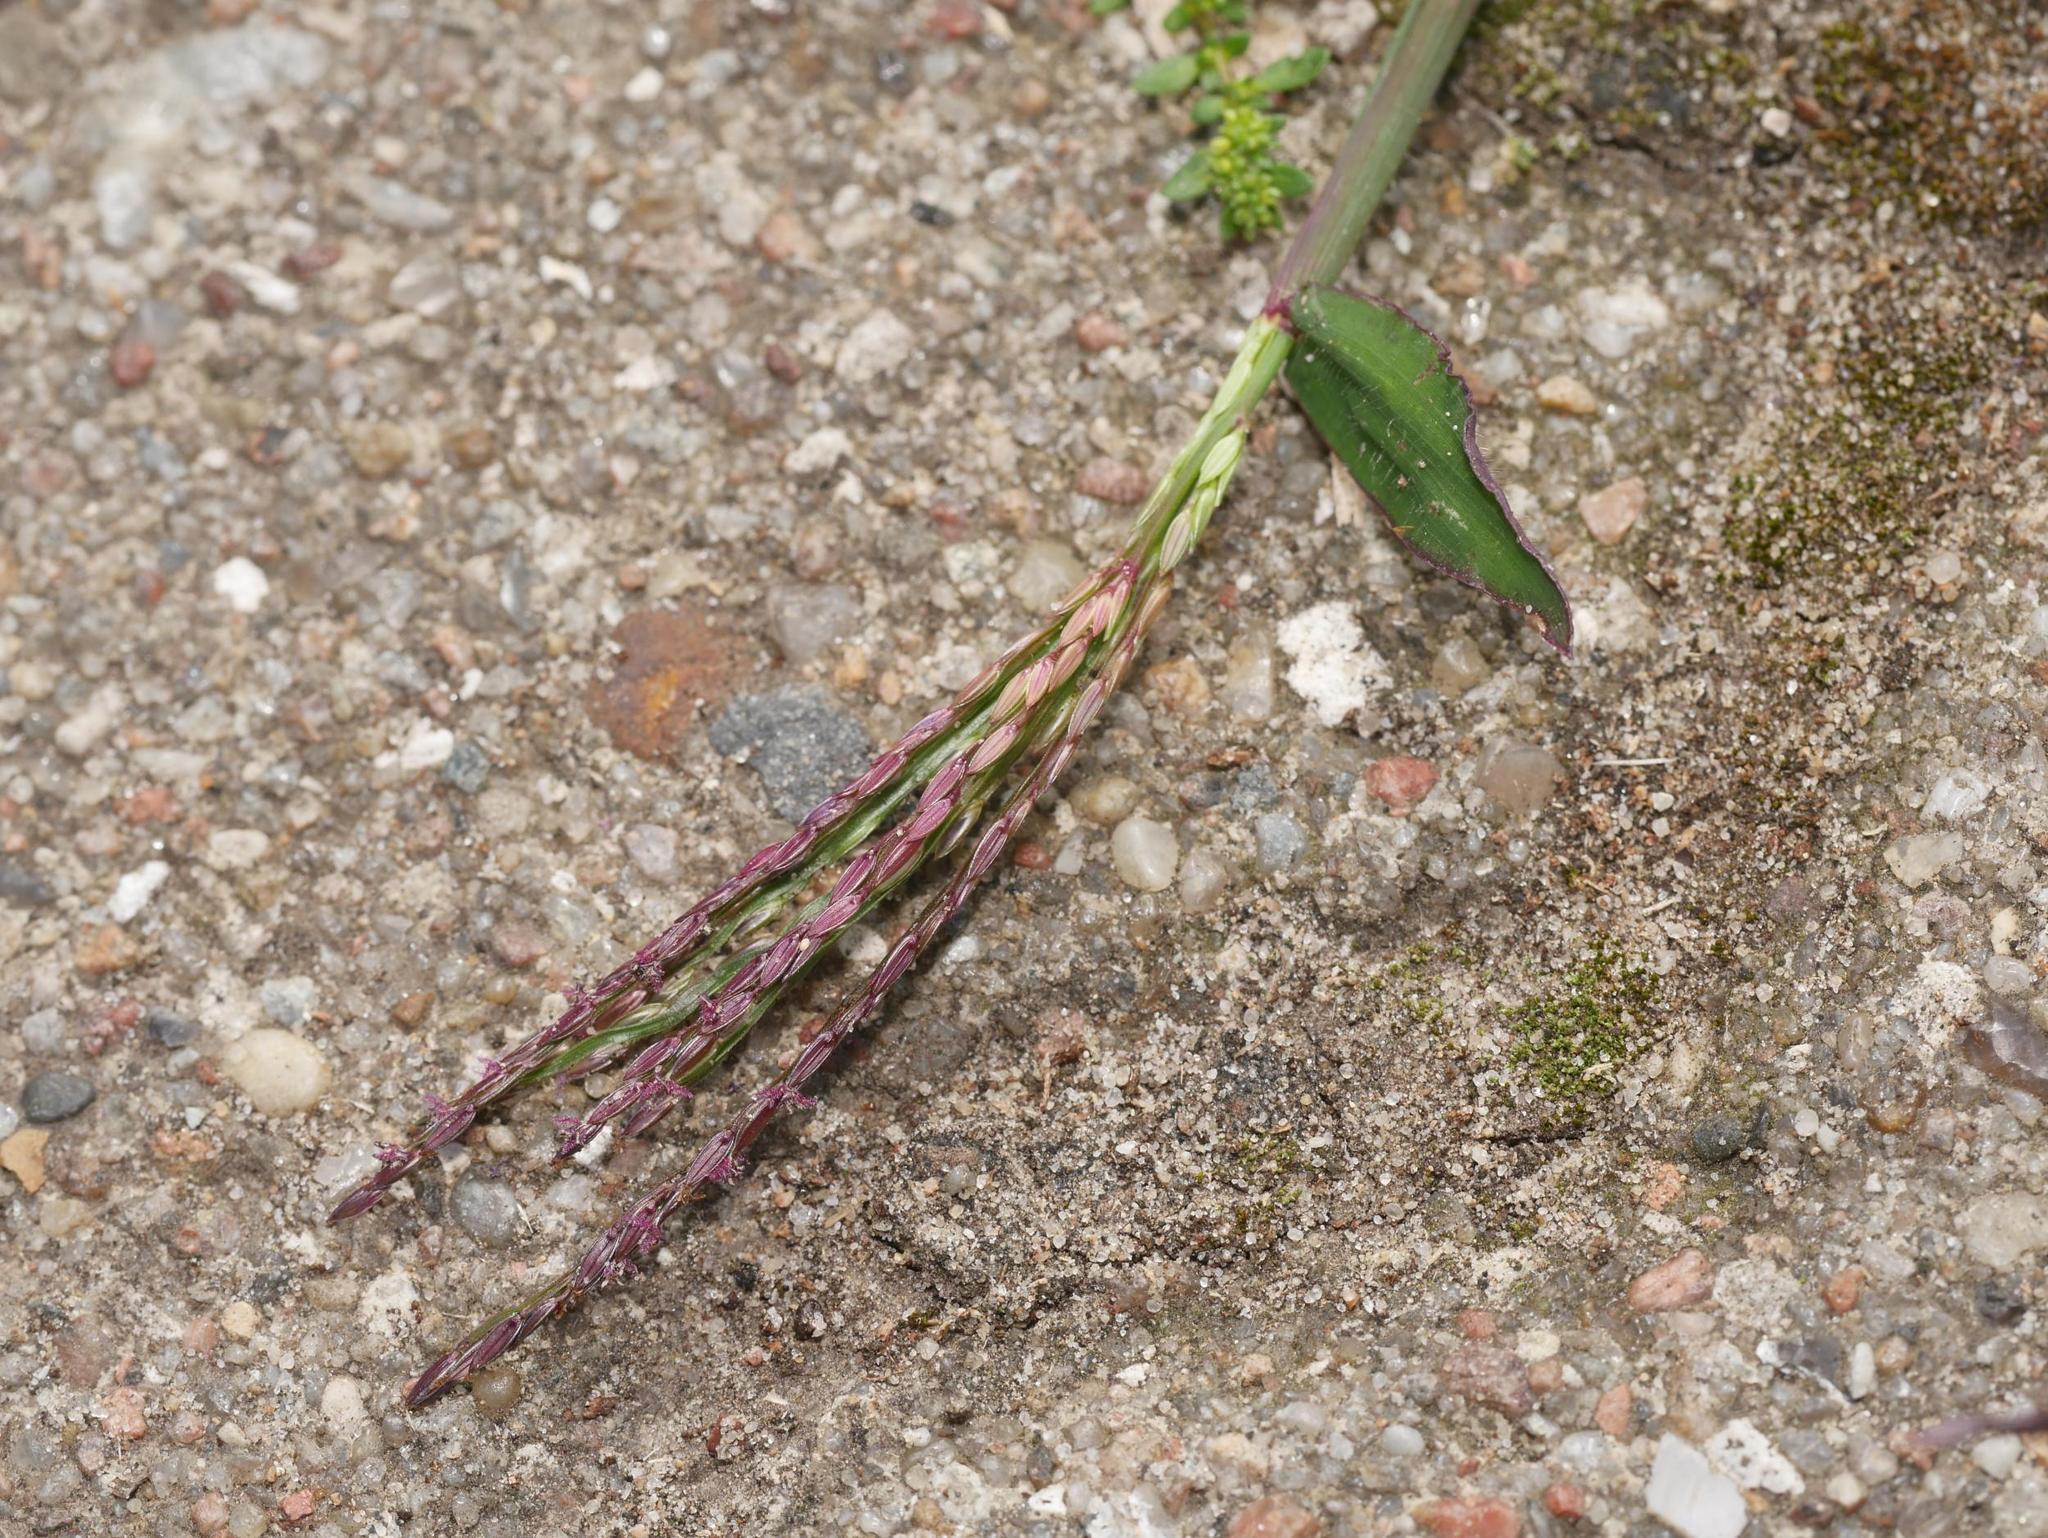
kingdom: Plantae
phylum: Tracheophyta
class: Liliopsida
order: Poales
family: Poaceae
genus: Digitaria
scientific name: Digitaria sanguinalis
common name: Hairy crabgrass
